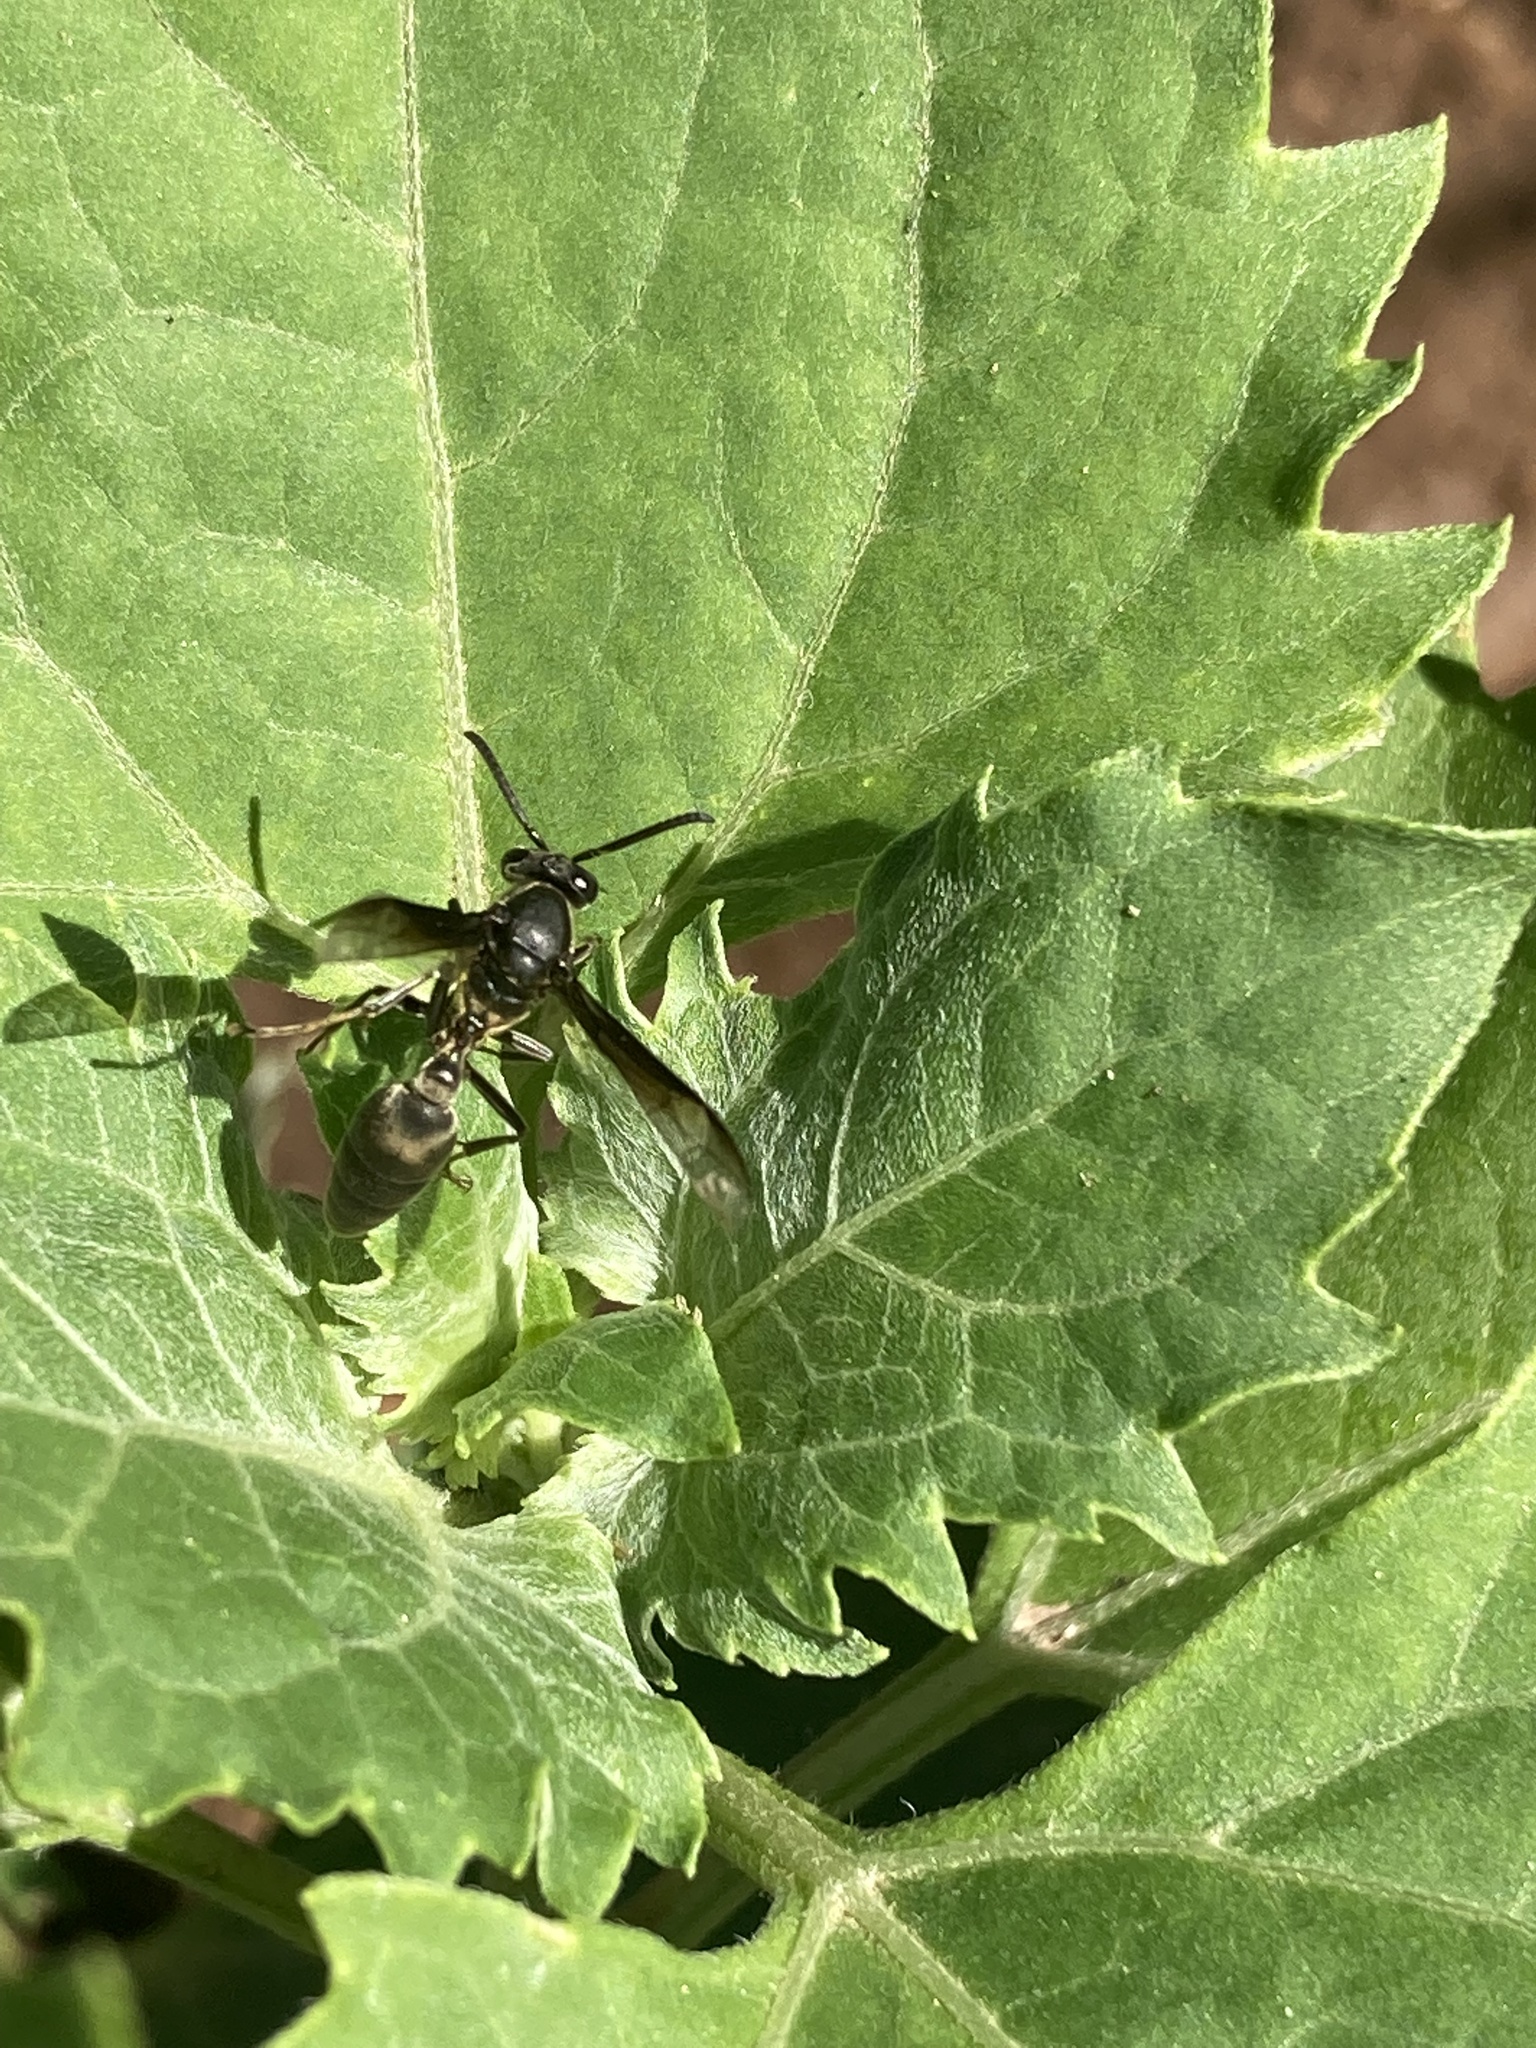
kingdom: Animalia
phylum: Arthropoda
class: Insecta
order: Hymenoptera
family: Eumenidae
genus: Polybia
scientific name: Polybia ignobilis
